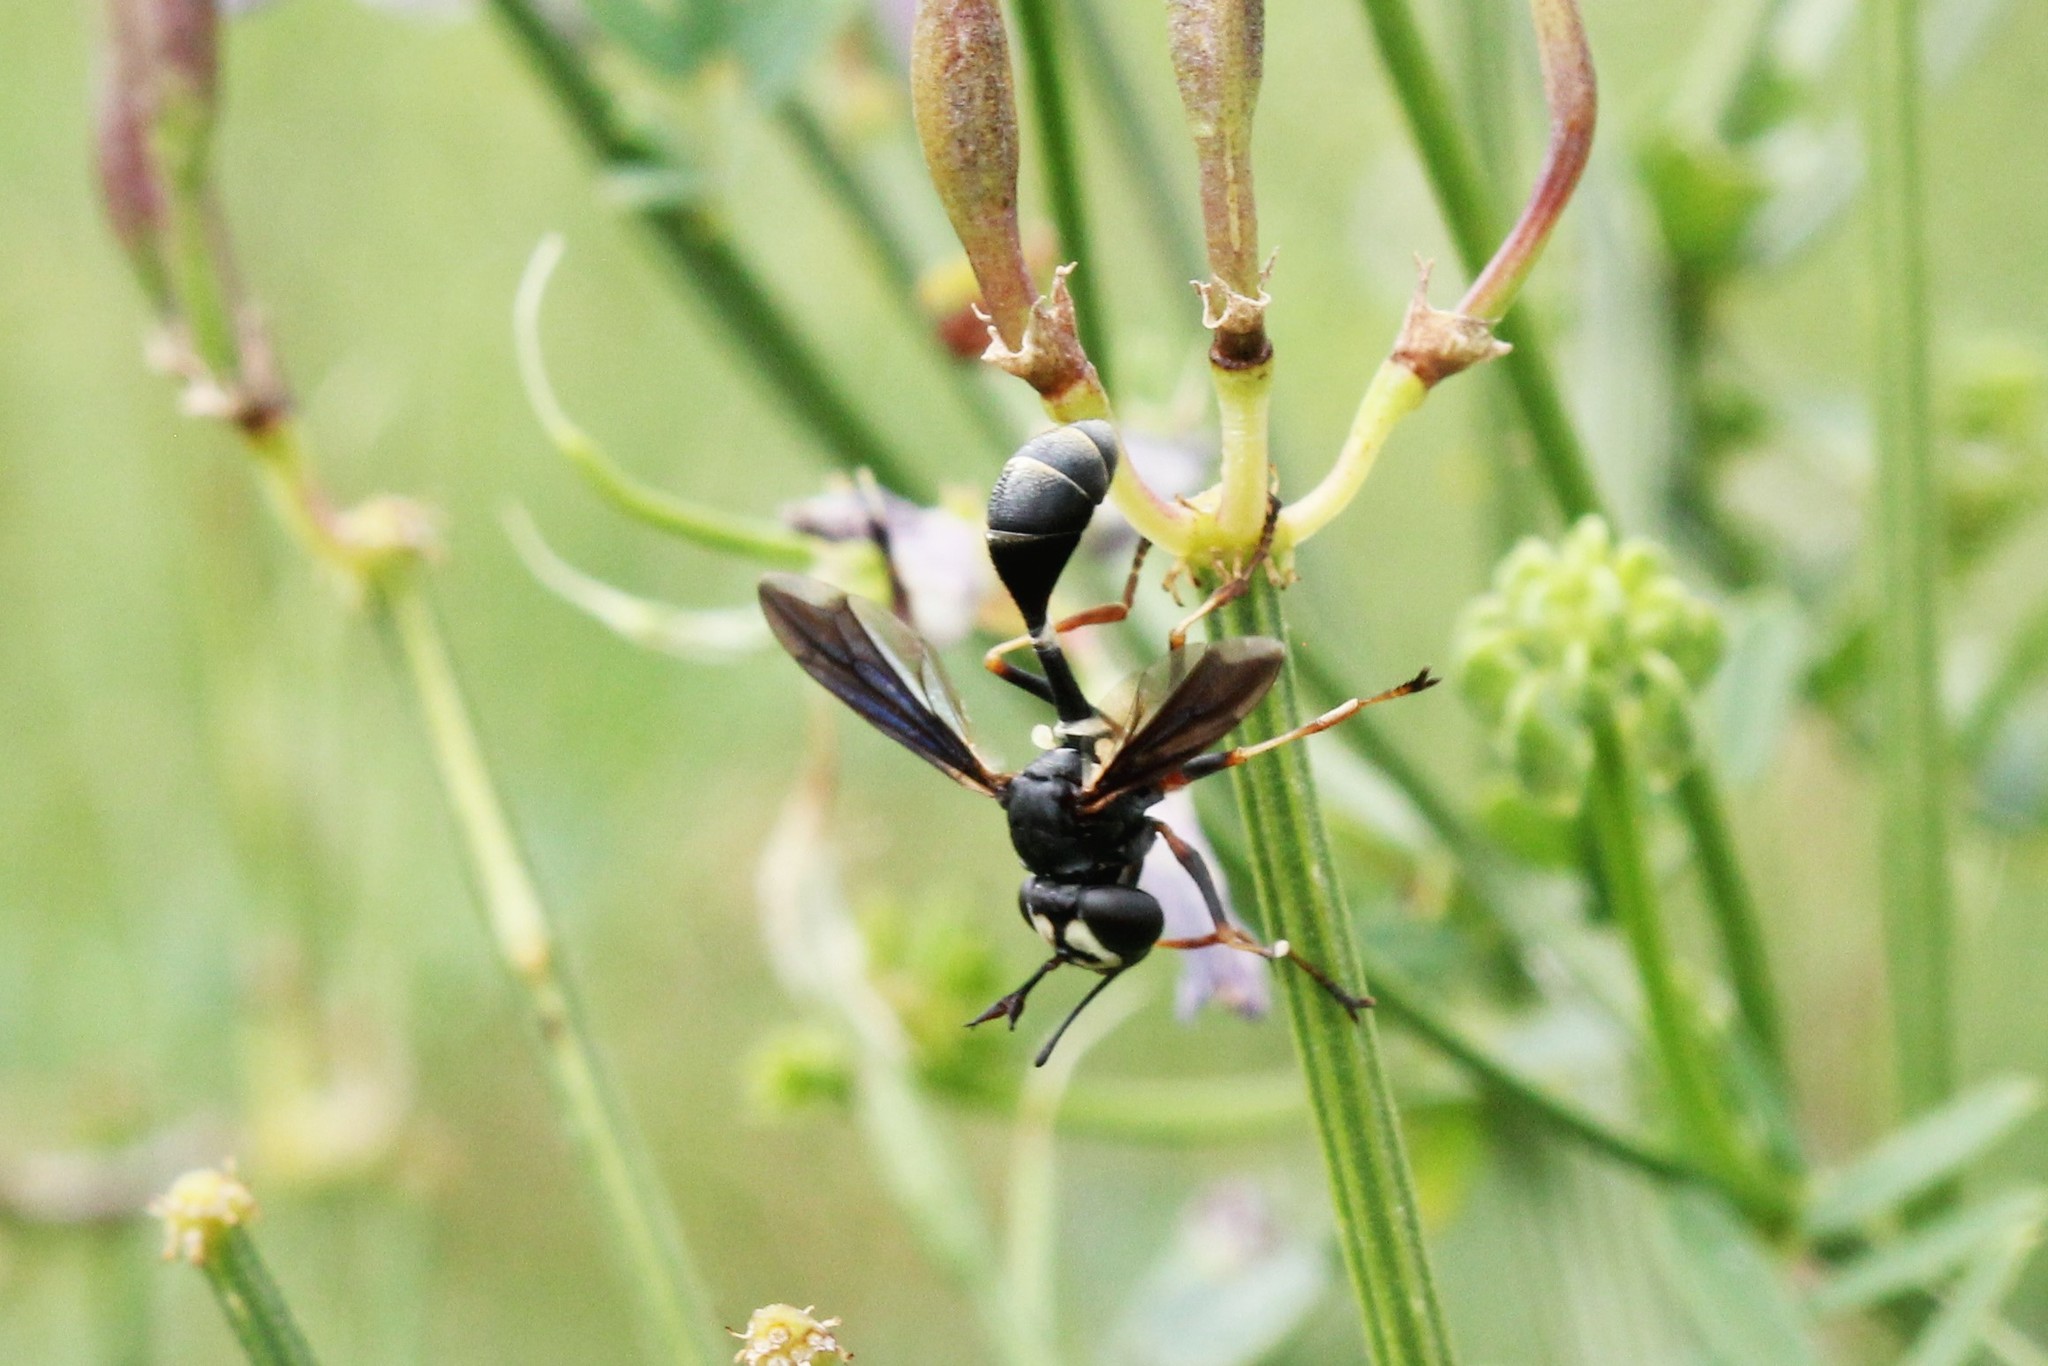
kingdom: Animalia
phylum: Arthropoda
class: Insecta
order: Diptera
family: Conopidae
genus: Physocephala
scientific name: Physocephala tibialis
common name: Common eastern physocephala
